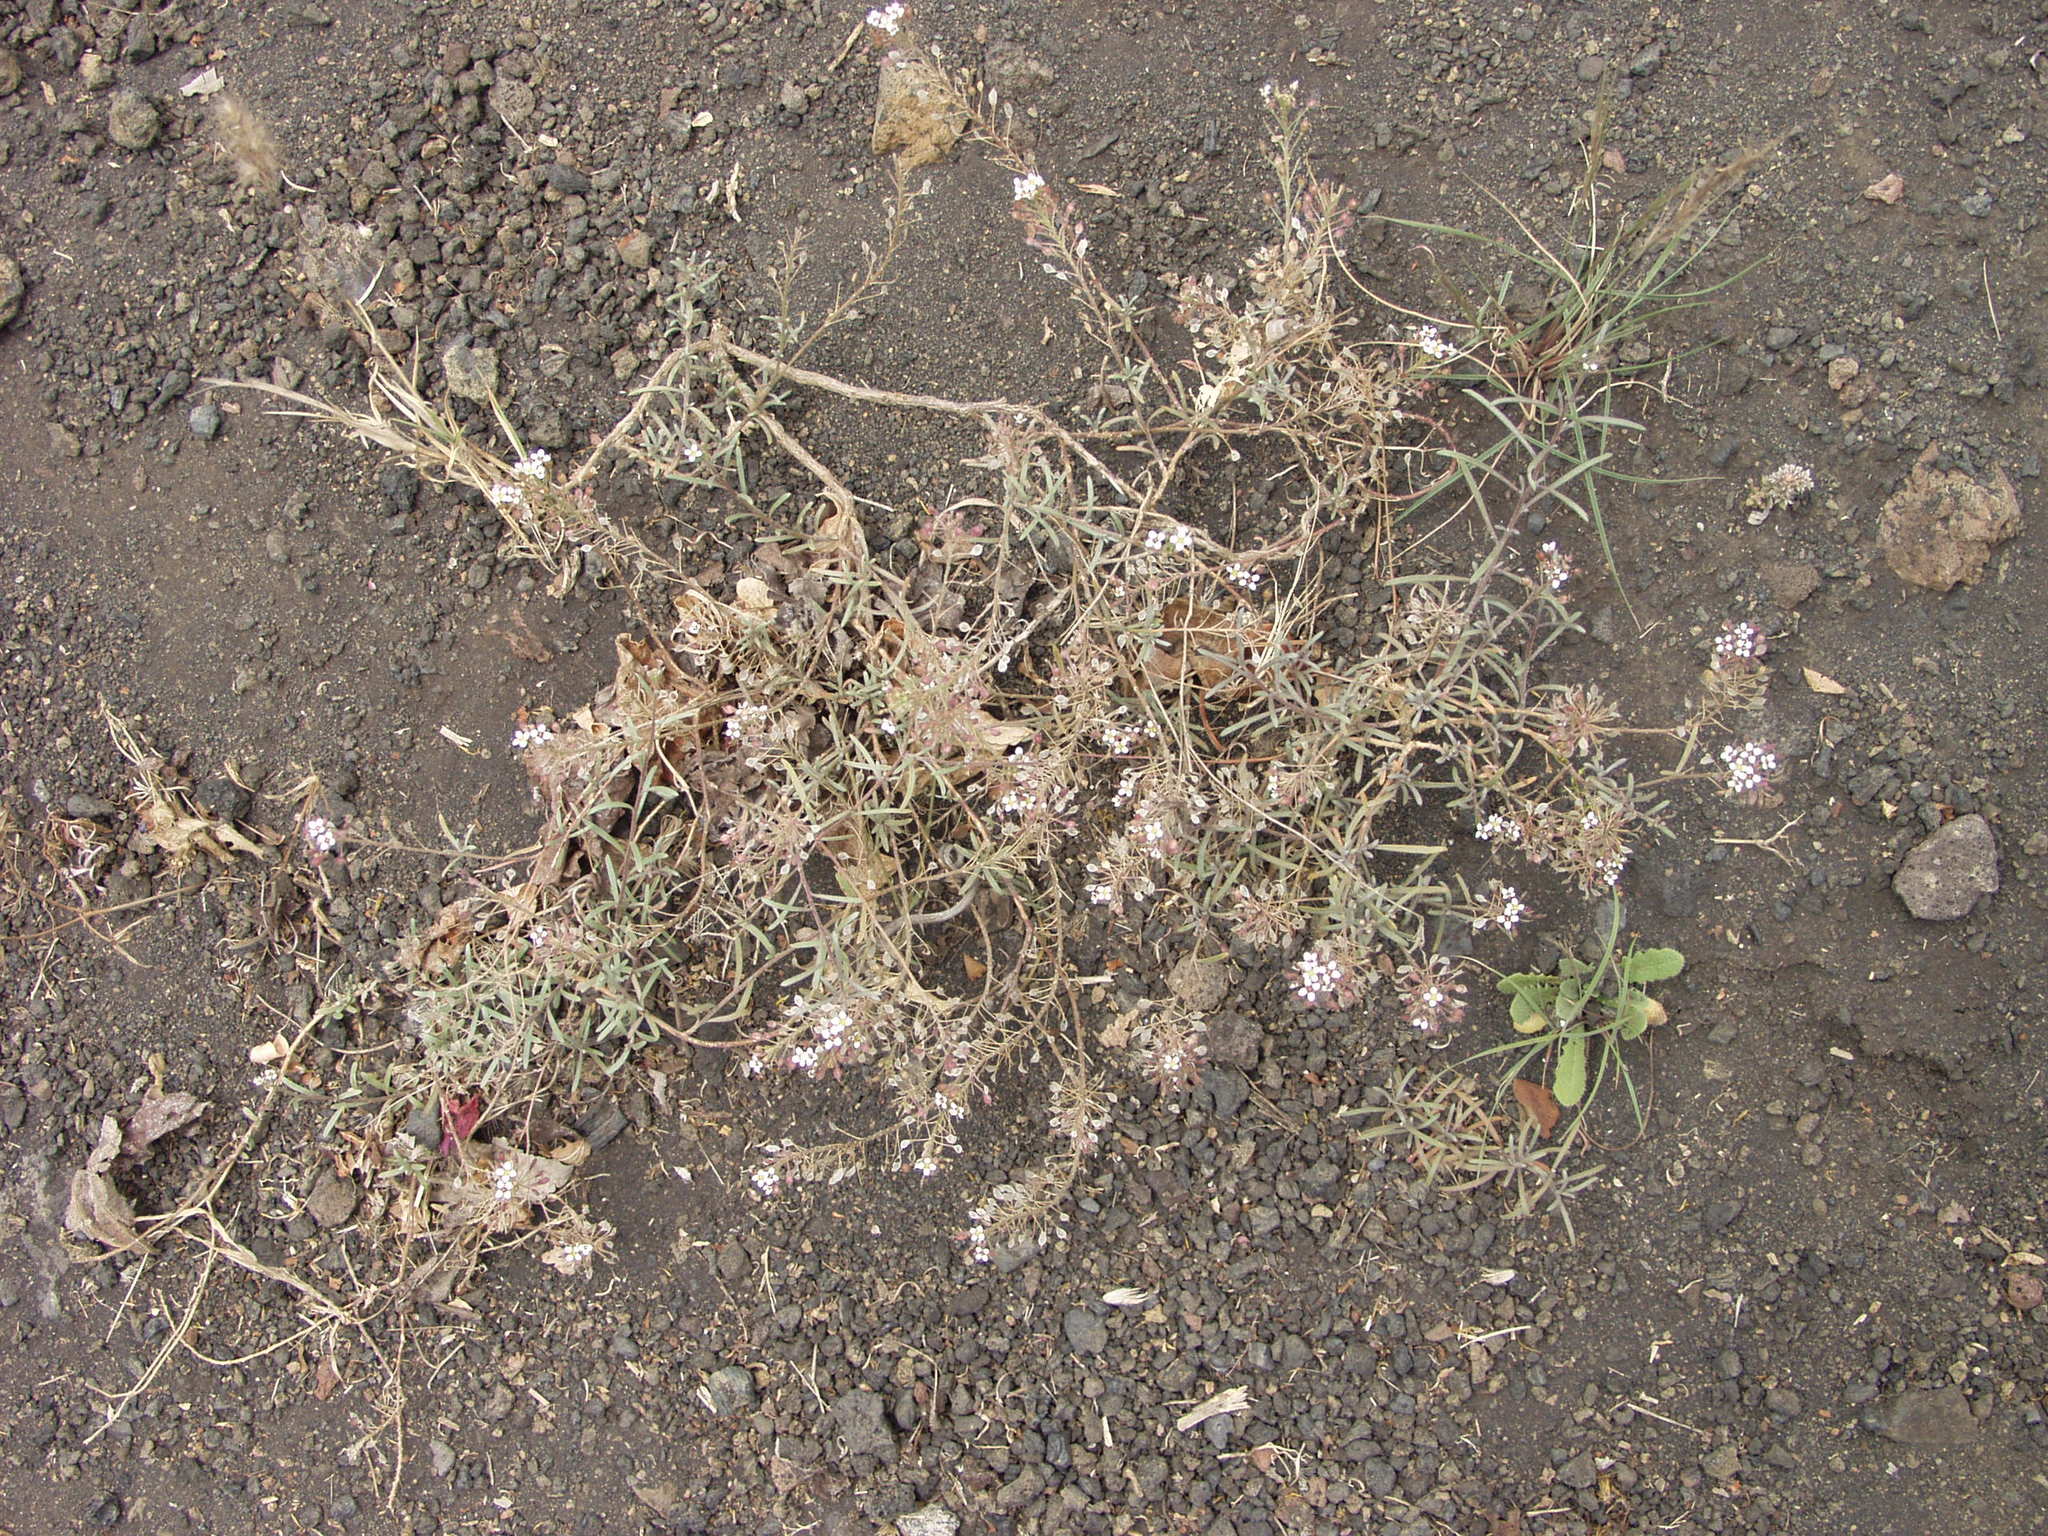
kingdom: Plantae
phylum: Tracheophyta
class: Magnoliopsida
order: Brassicales
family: Brassicaceae
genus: Lobularia
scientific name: Lobularia canariensis
